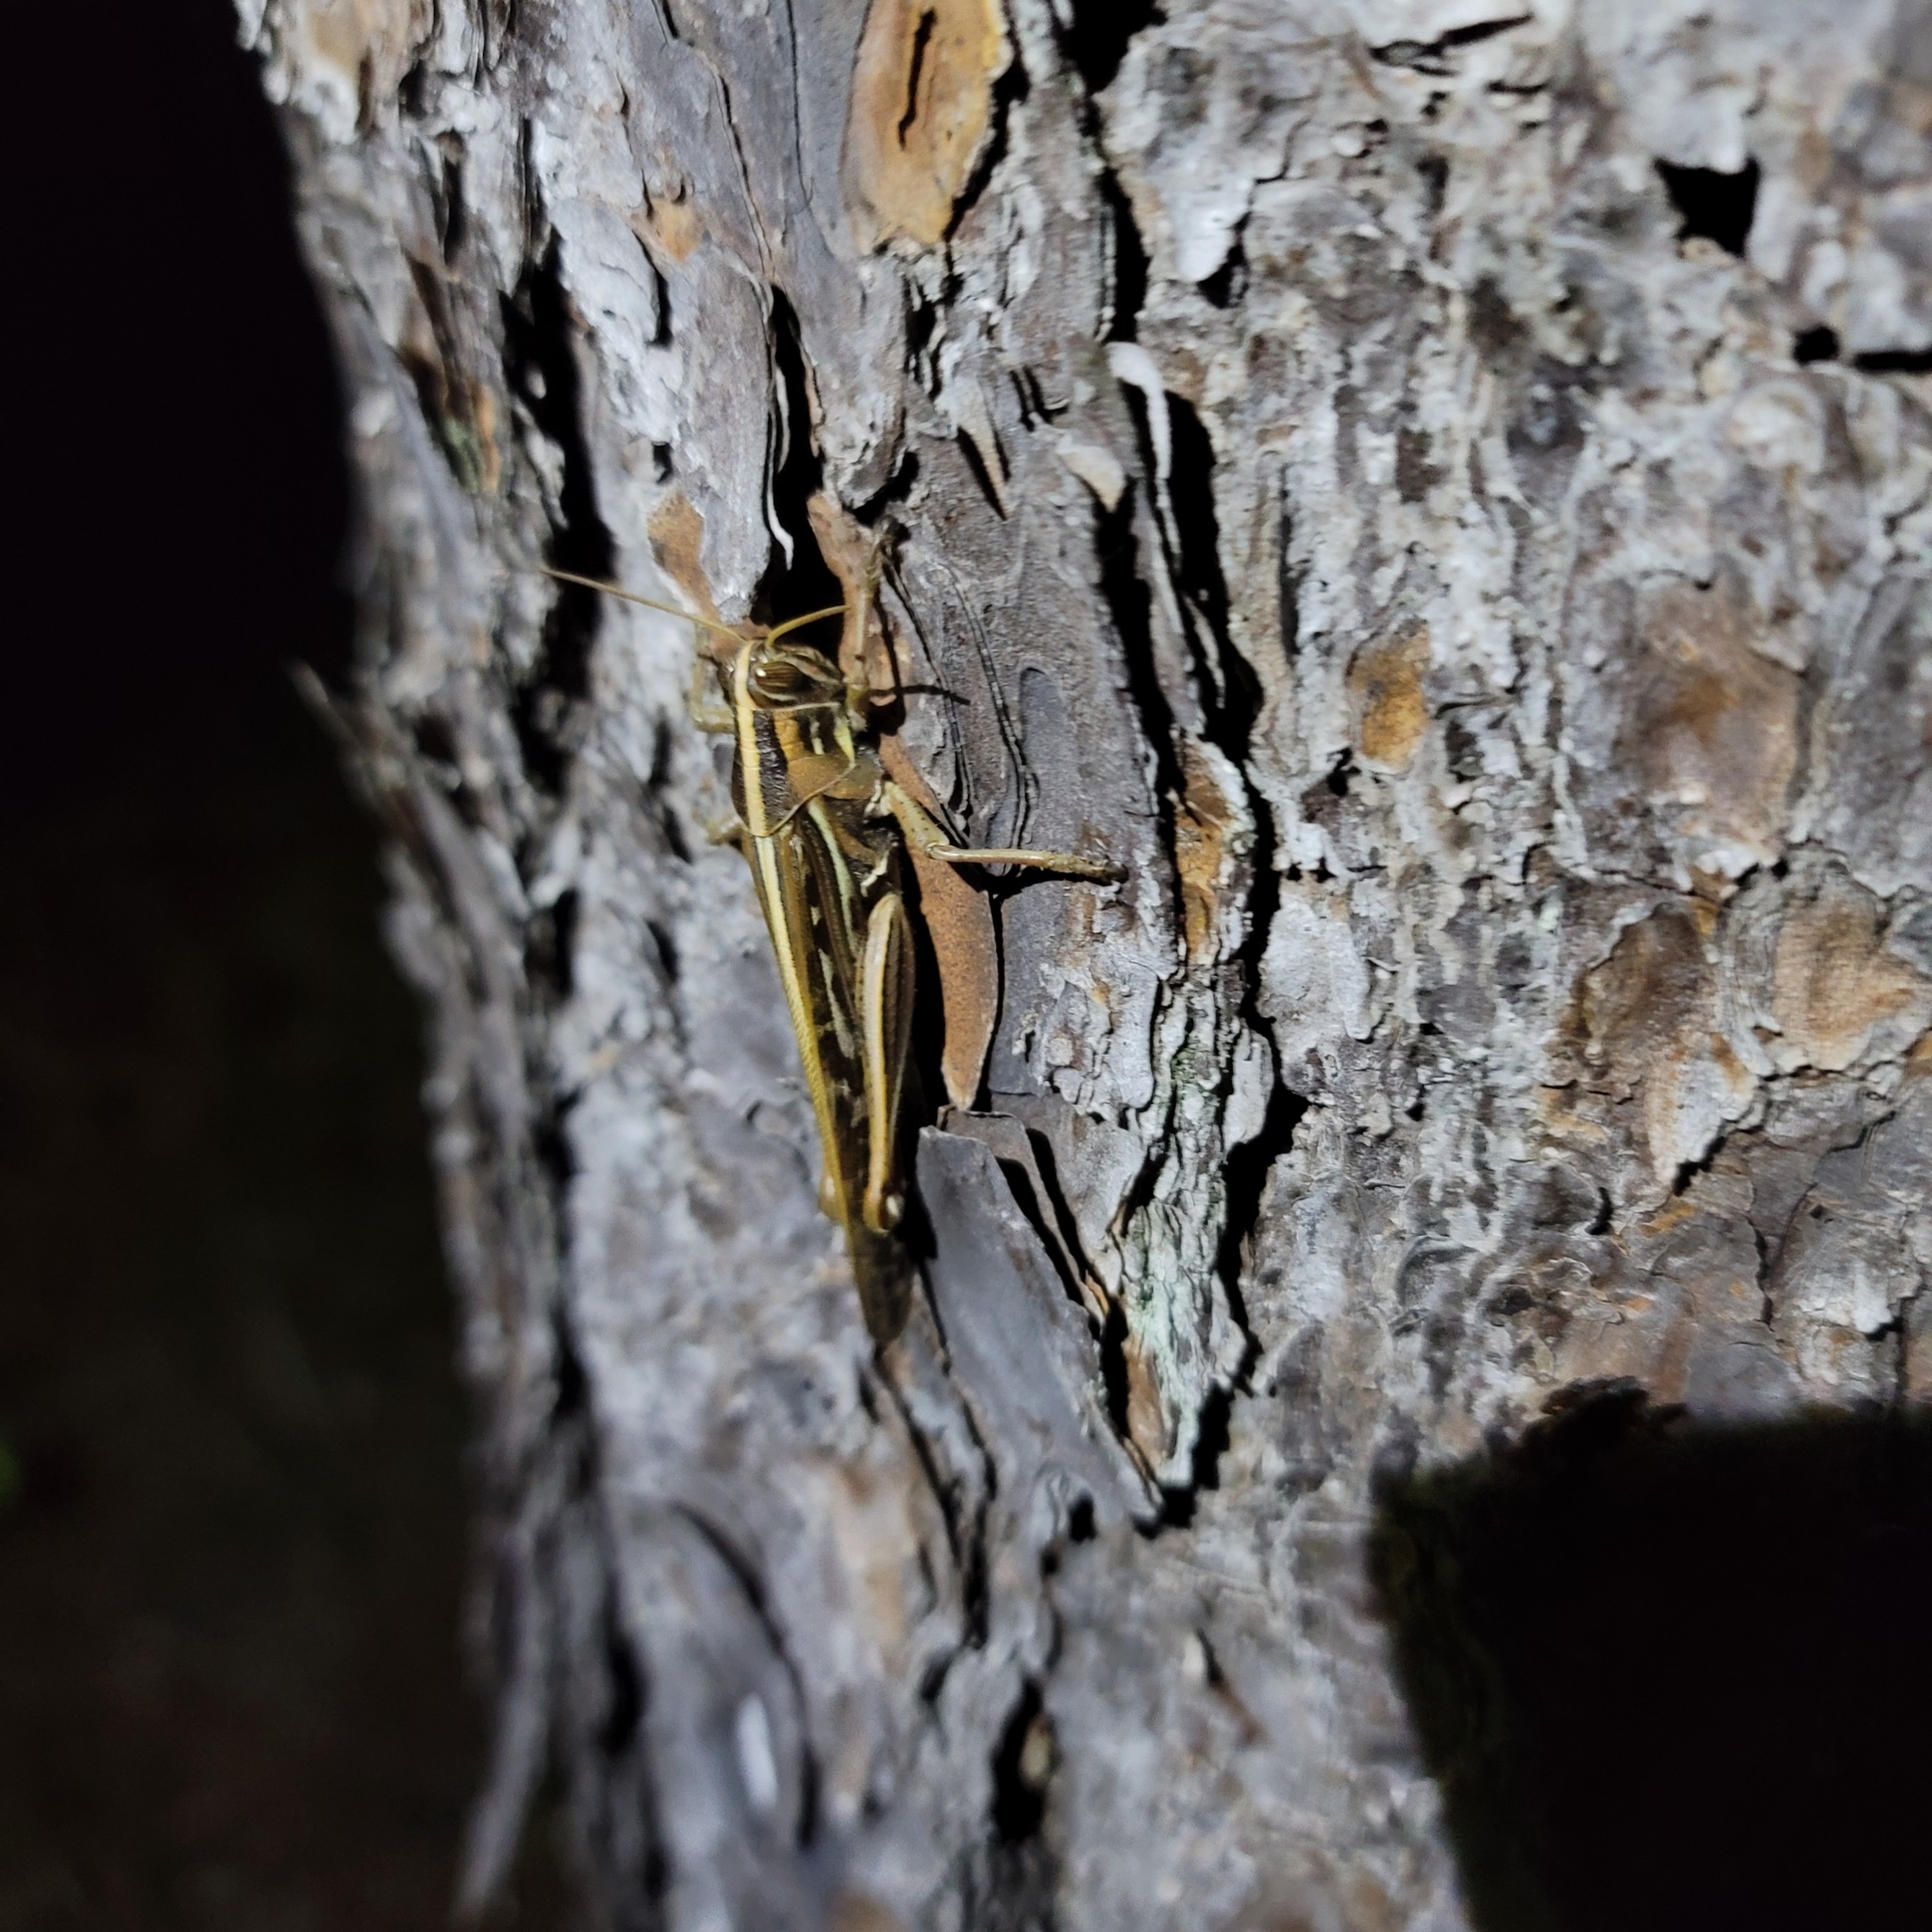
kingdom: Animalia
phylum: Arthropoda
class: Insecta
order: Orthoptera
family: Acrididae
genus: Schistocerca
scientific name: Schistocerca americana
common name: American bird locust
